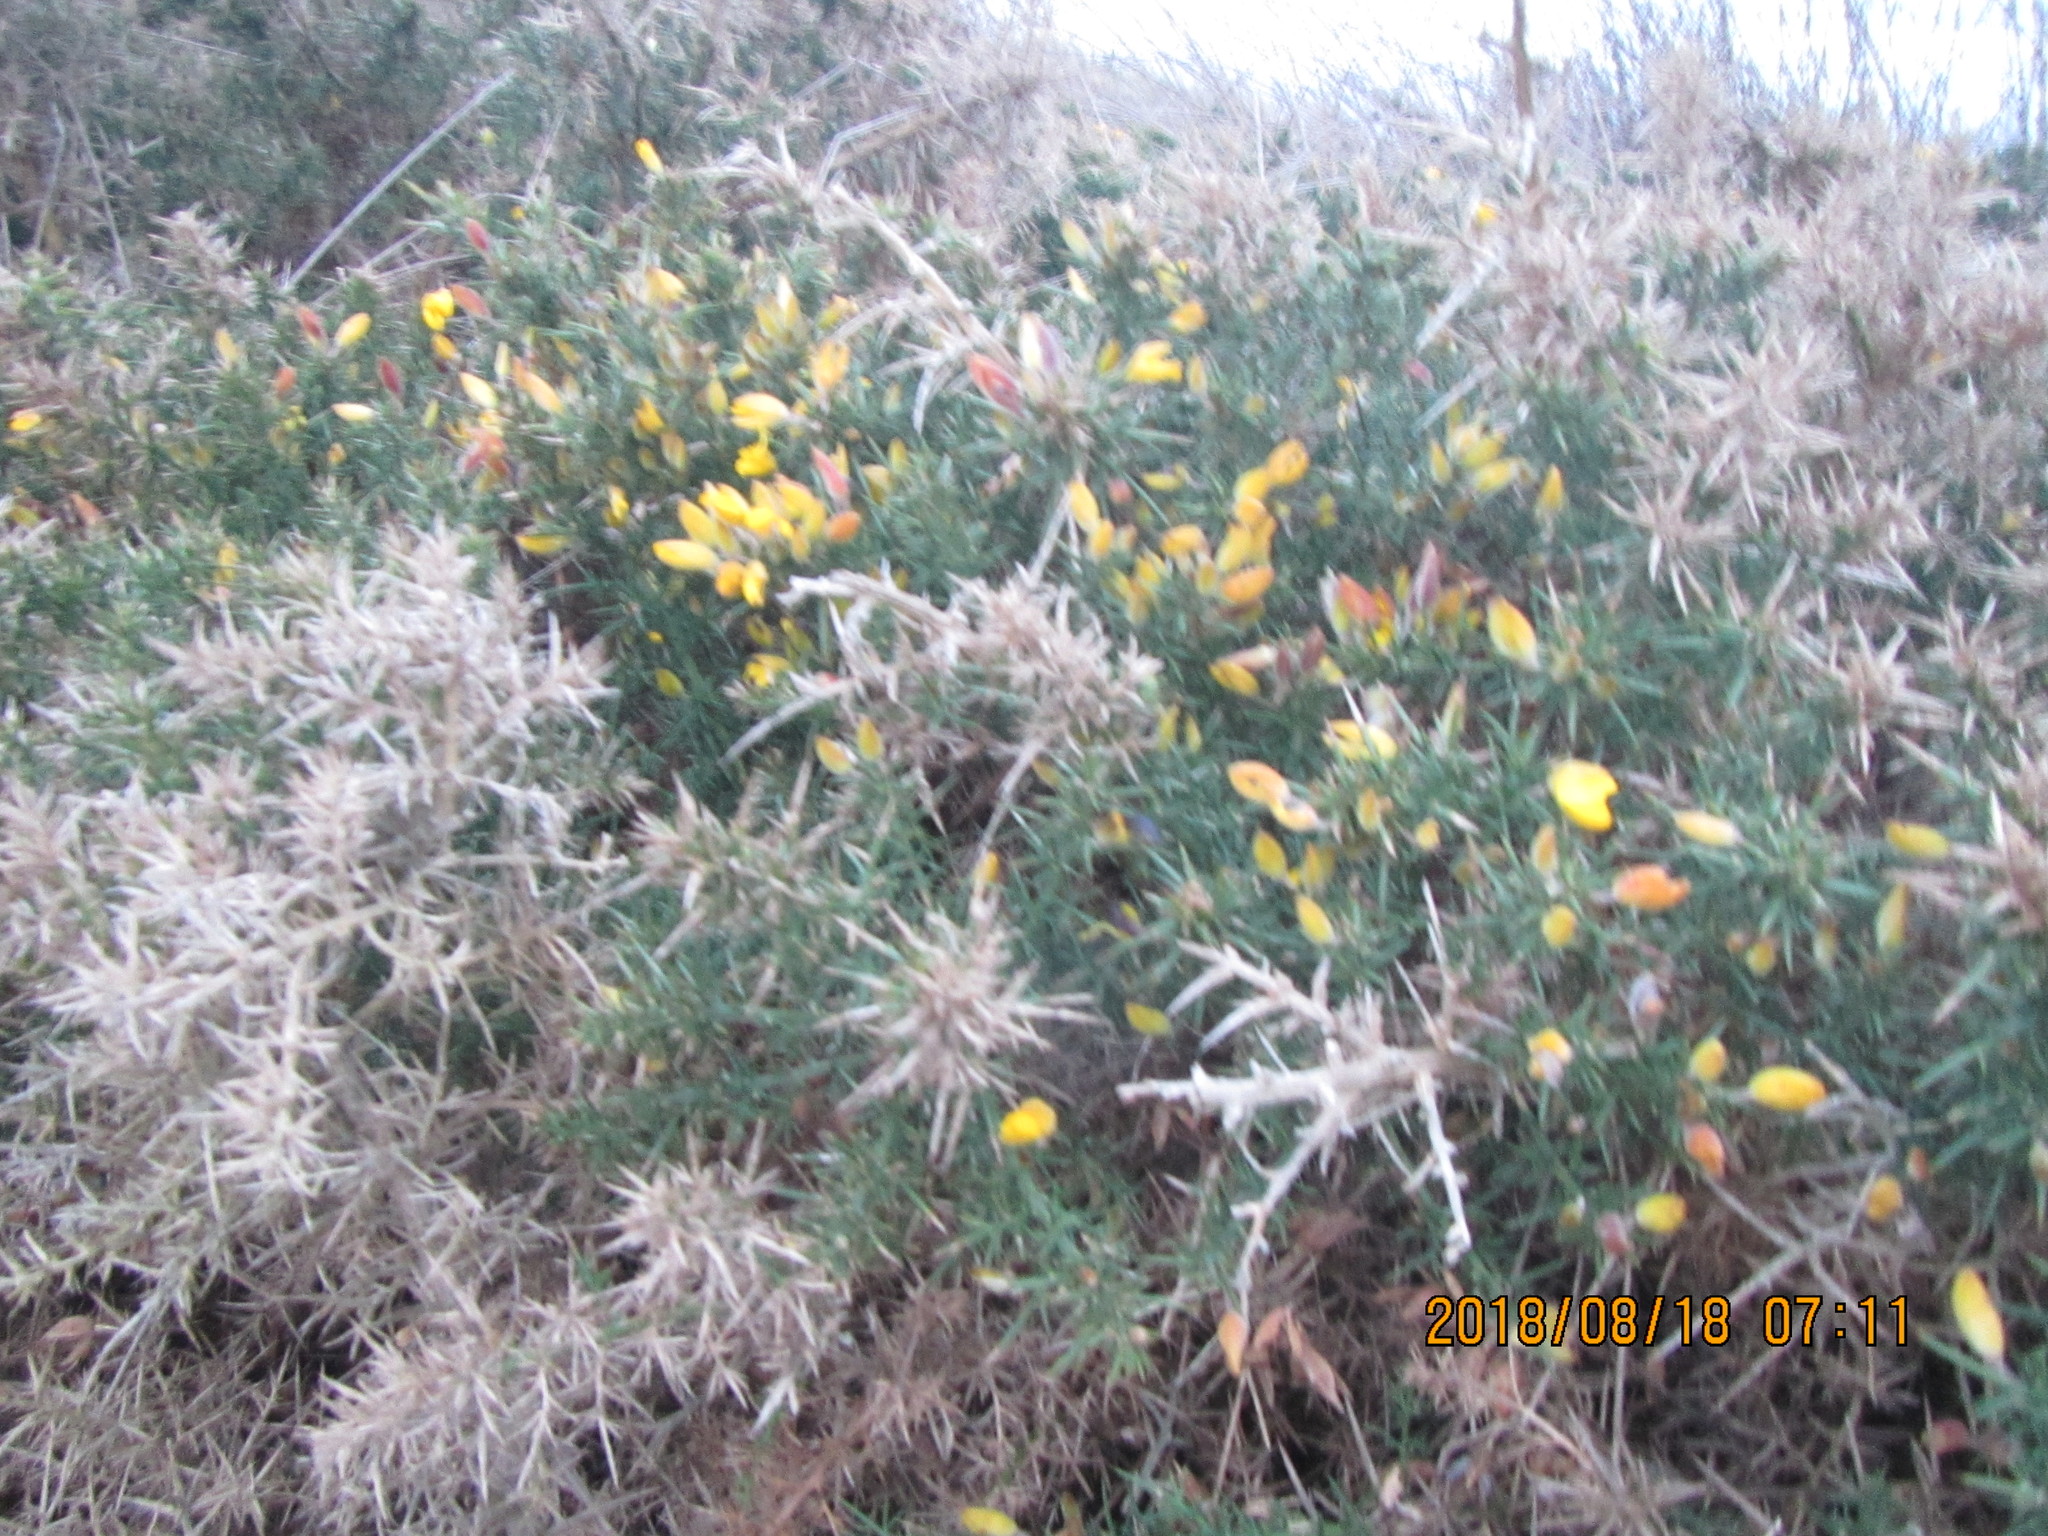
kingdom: Plantae
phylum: Tracheophyta
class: Magnoliopsida
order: Fabales
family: Fabaceae
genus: Ulex
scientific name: Ulex europaeus
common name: Common gorse
